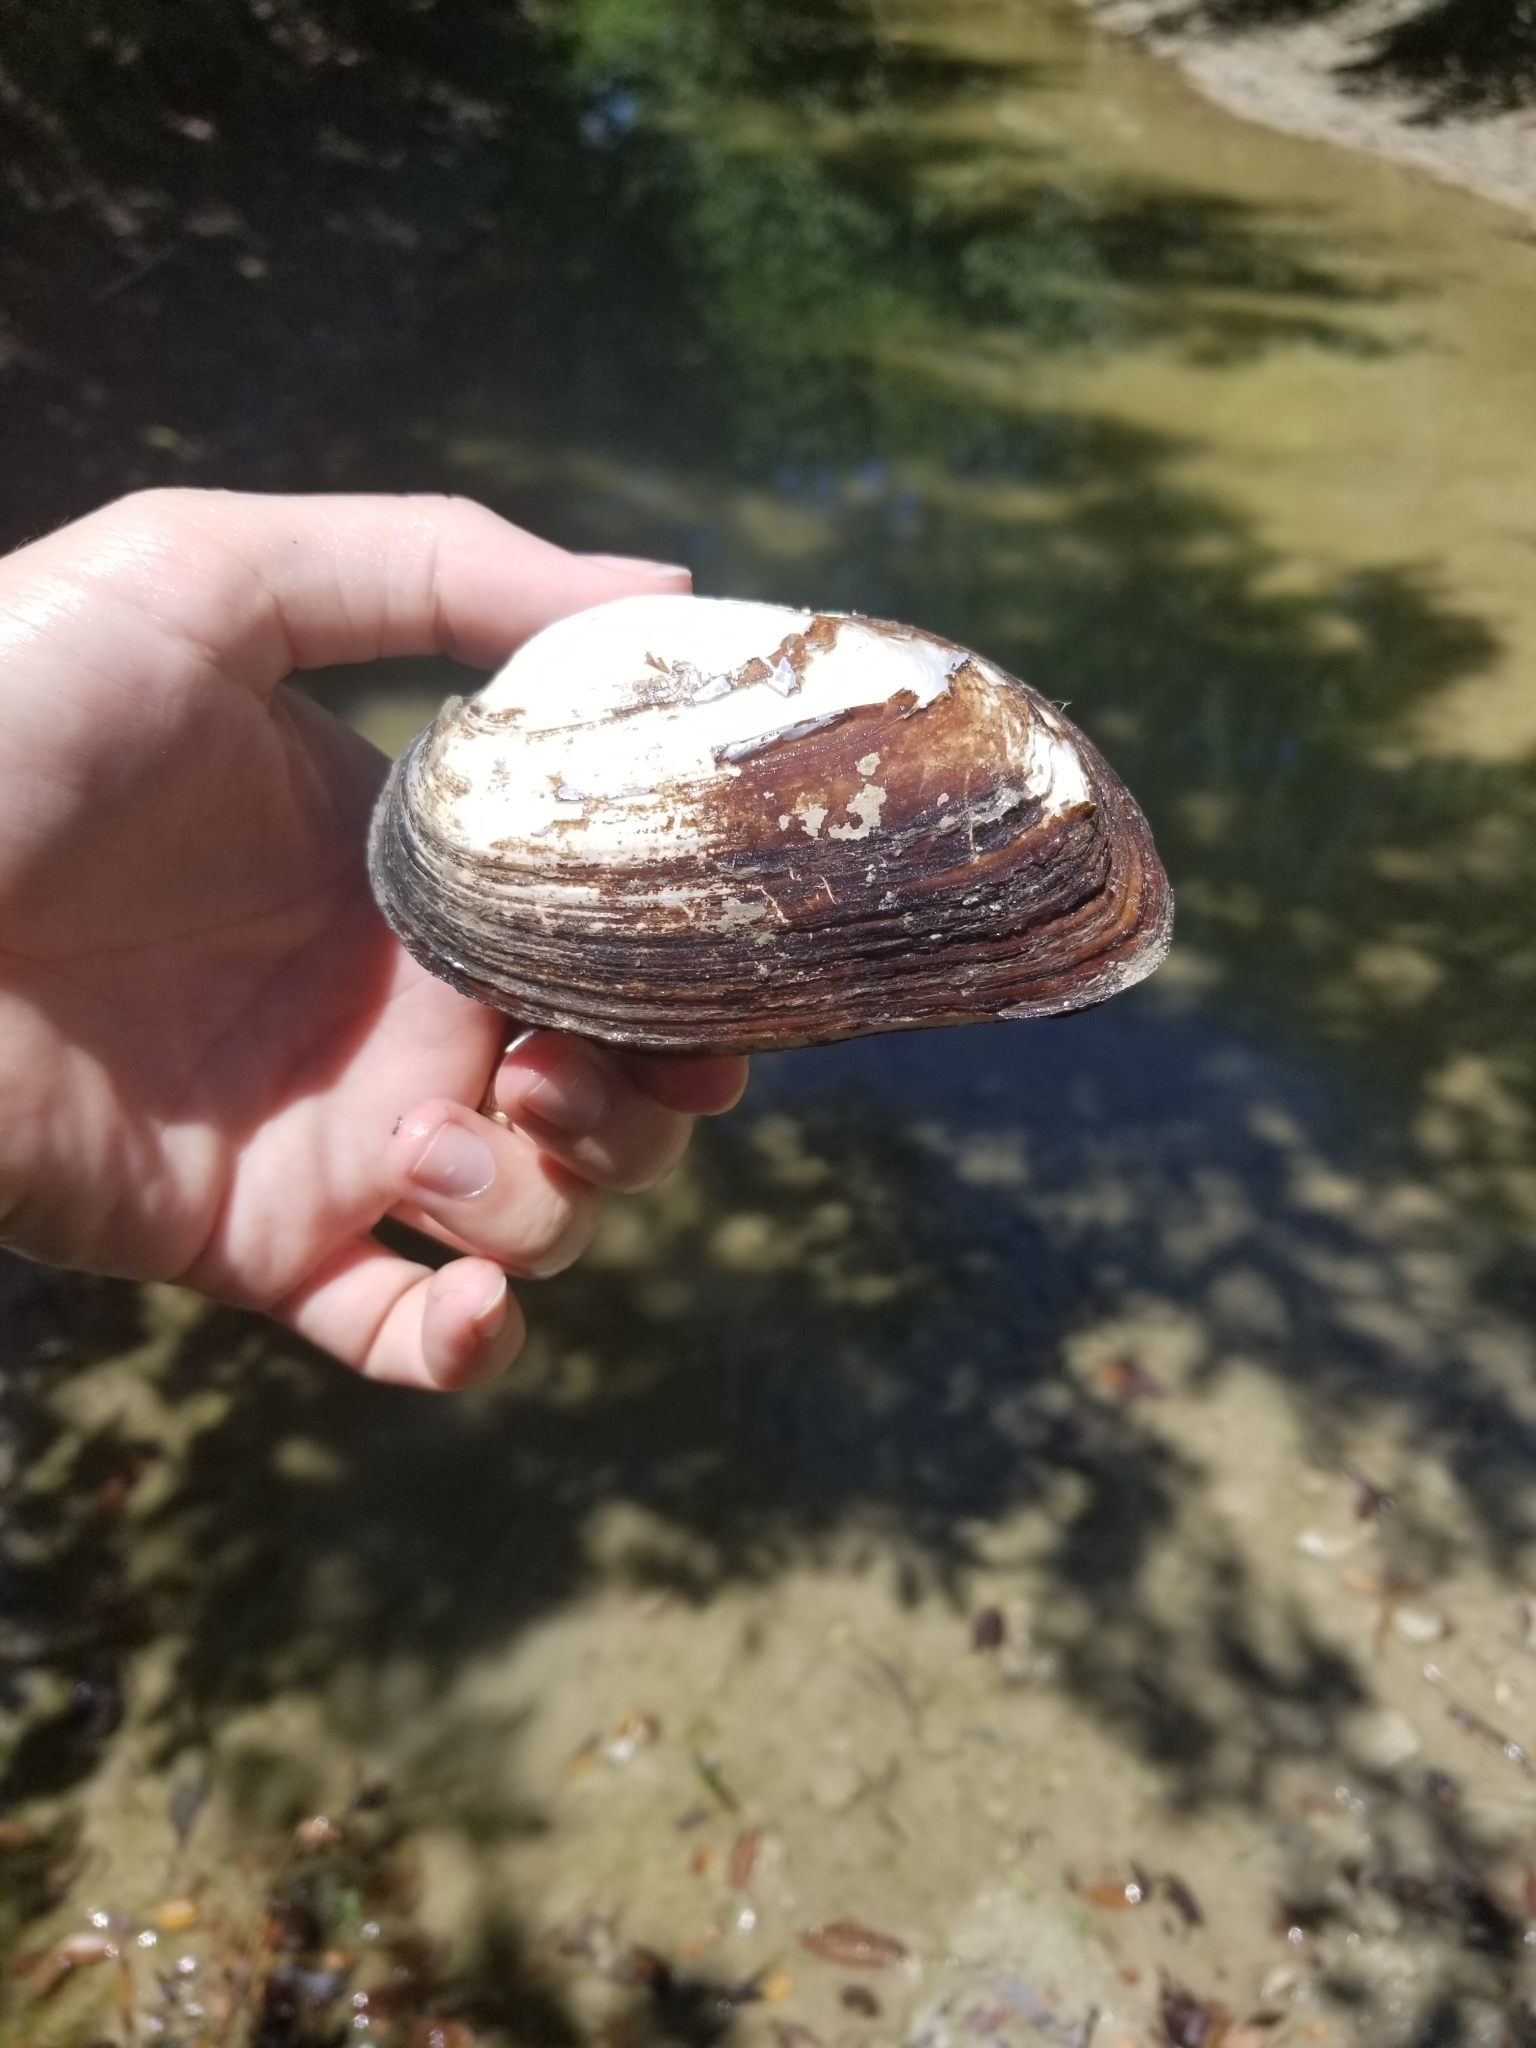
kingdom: Animalia
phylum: Mollusca
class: Bivalvia
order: Unionida
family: Unionidae
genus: Uniomerus
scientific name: Uniomerus declivis
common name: Tapered pondhorn
